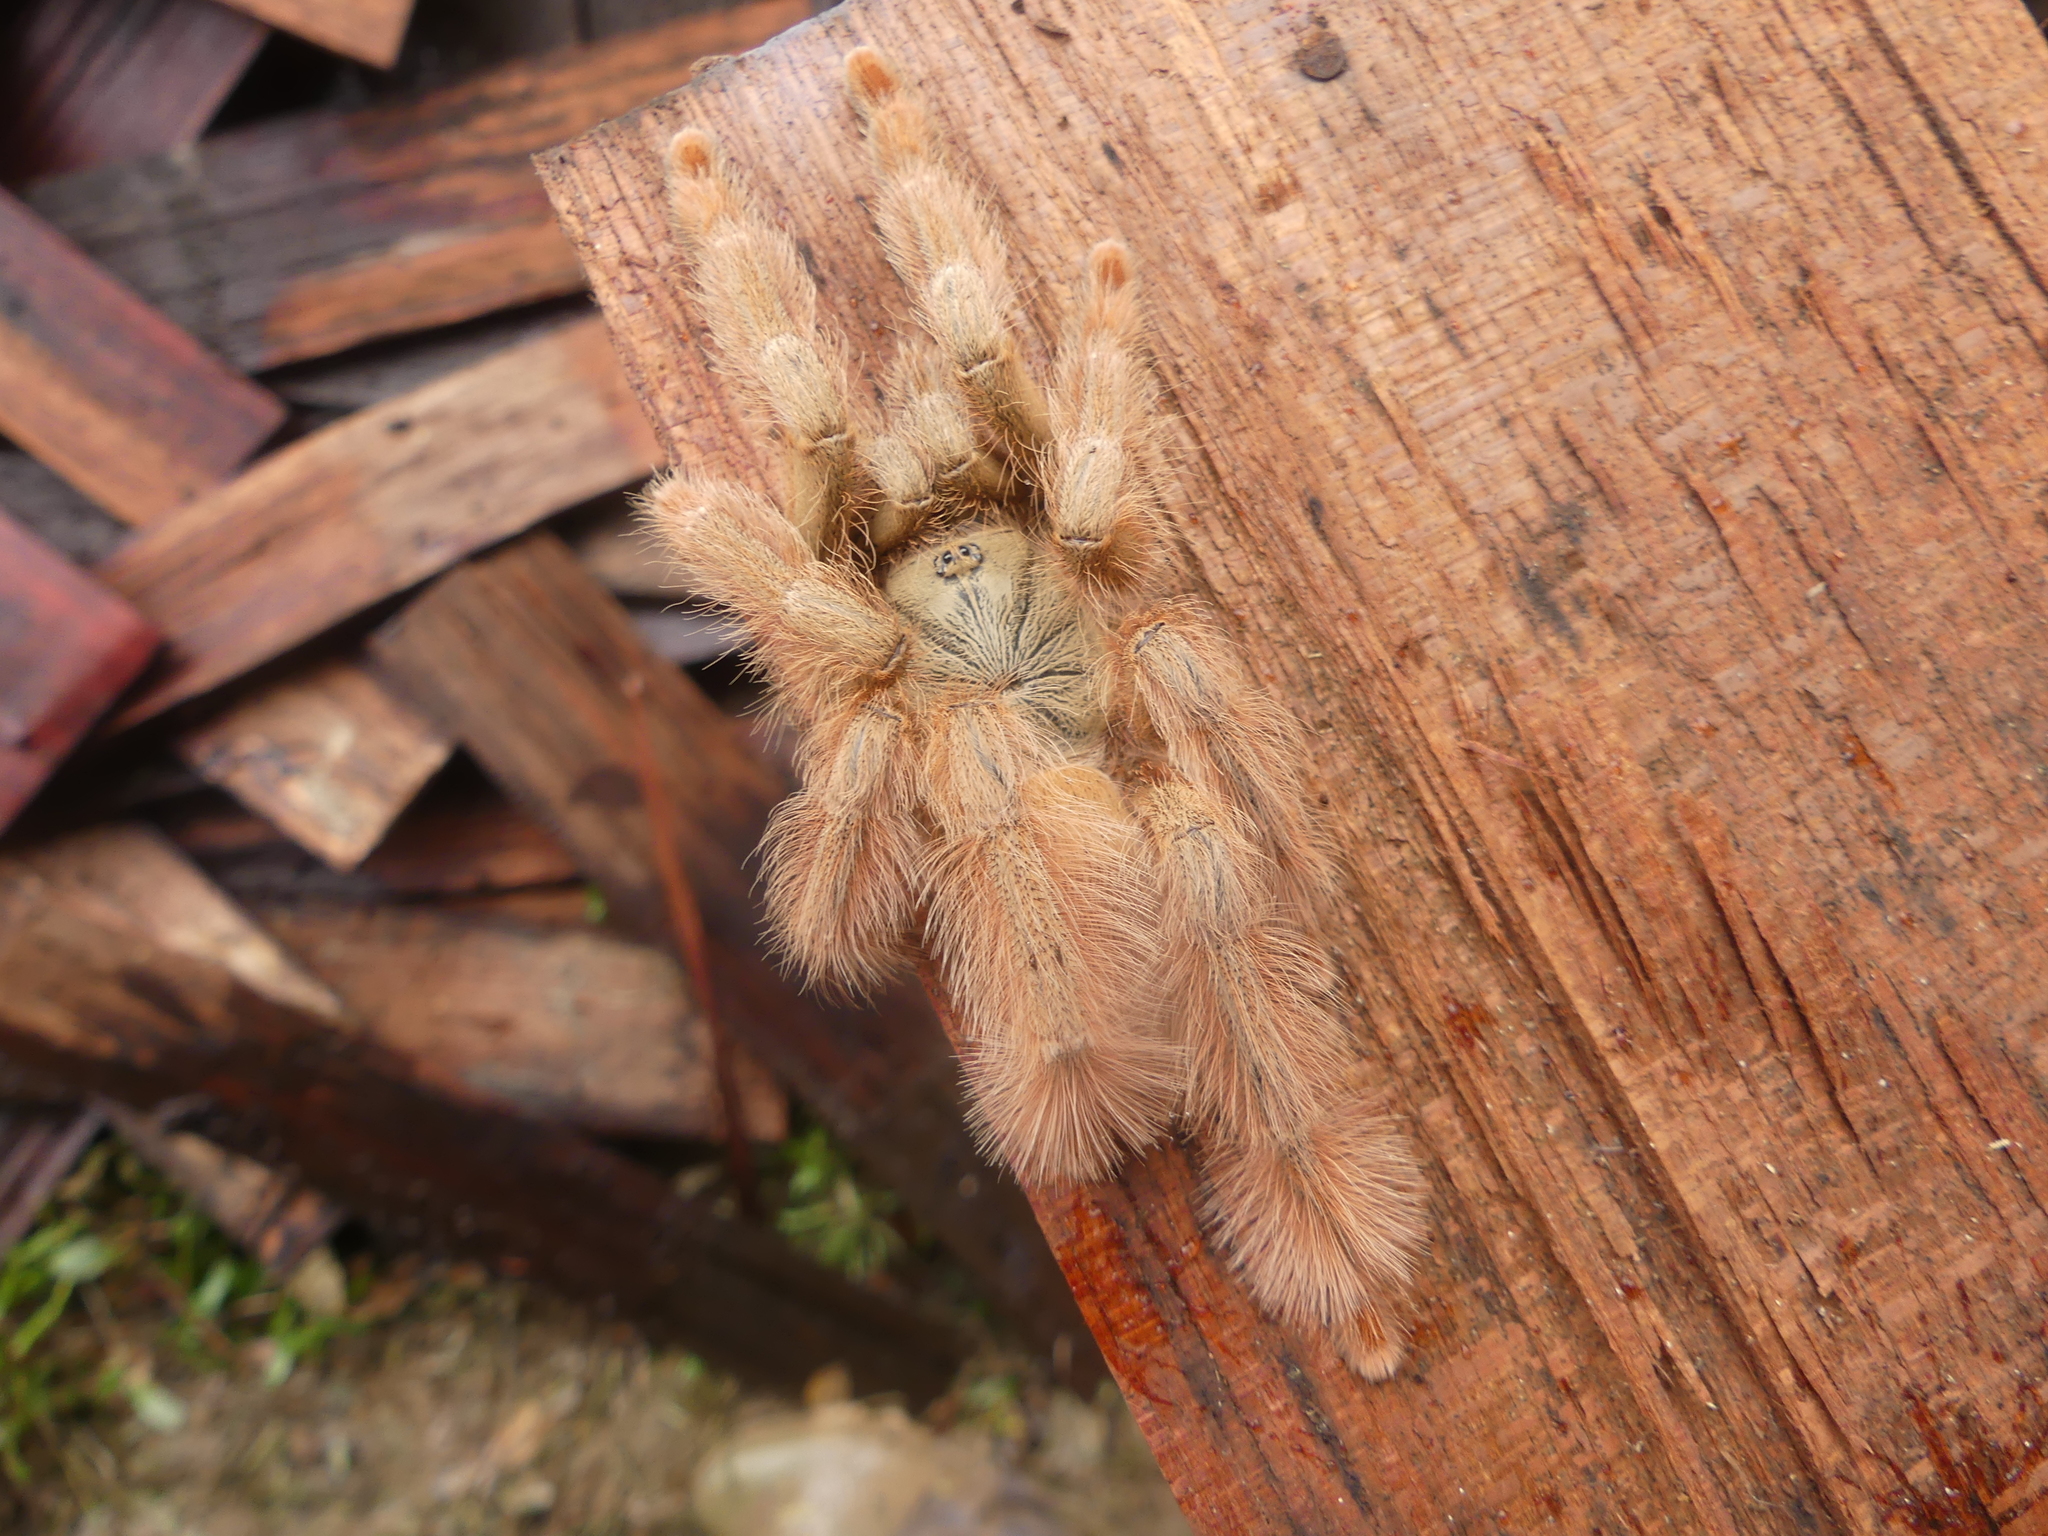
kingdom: Animalia
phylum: Arthropoda
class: Arachnida
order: Araneae
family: Theraphosidae
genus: Amazonius
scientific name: Amazonius germani
